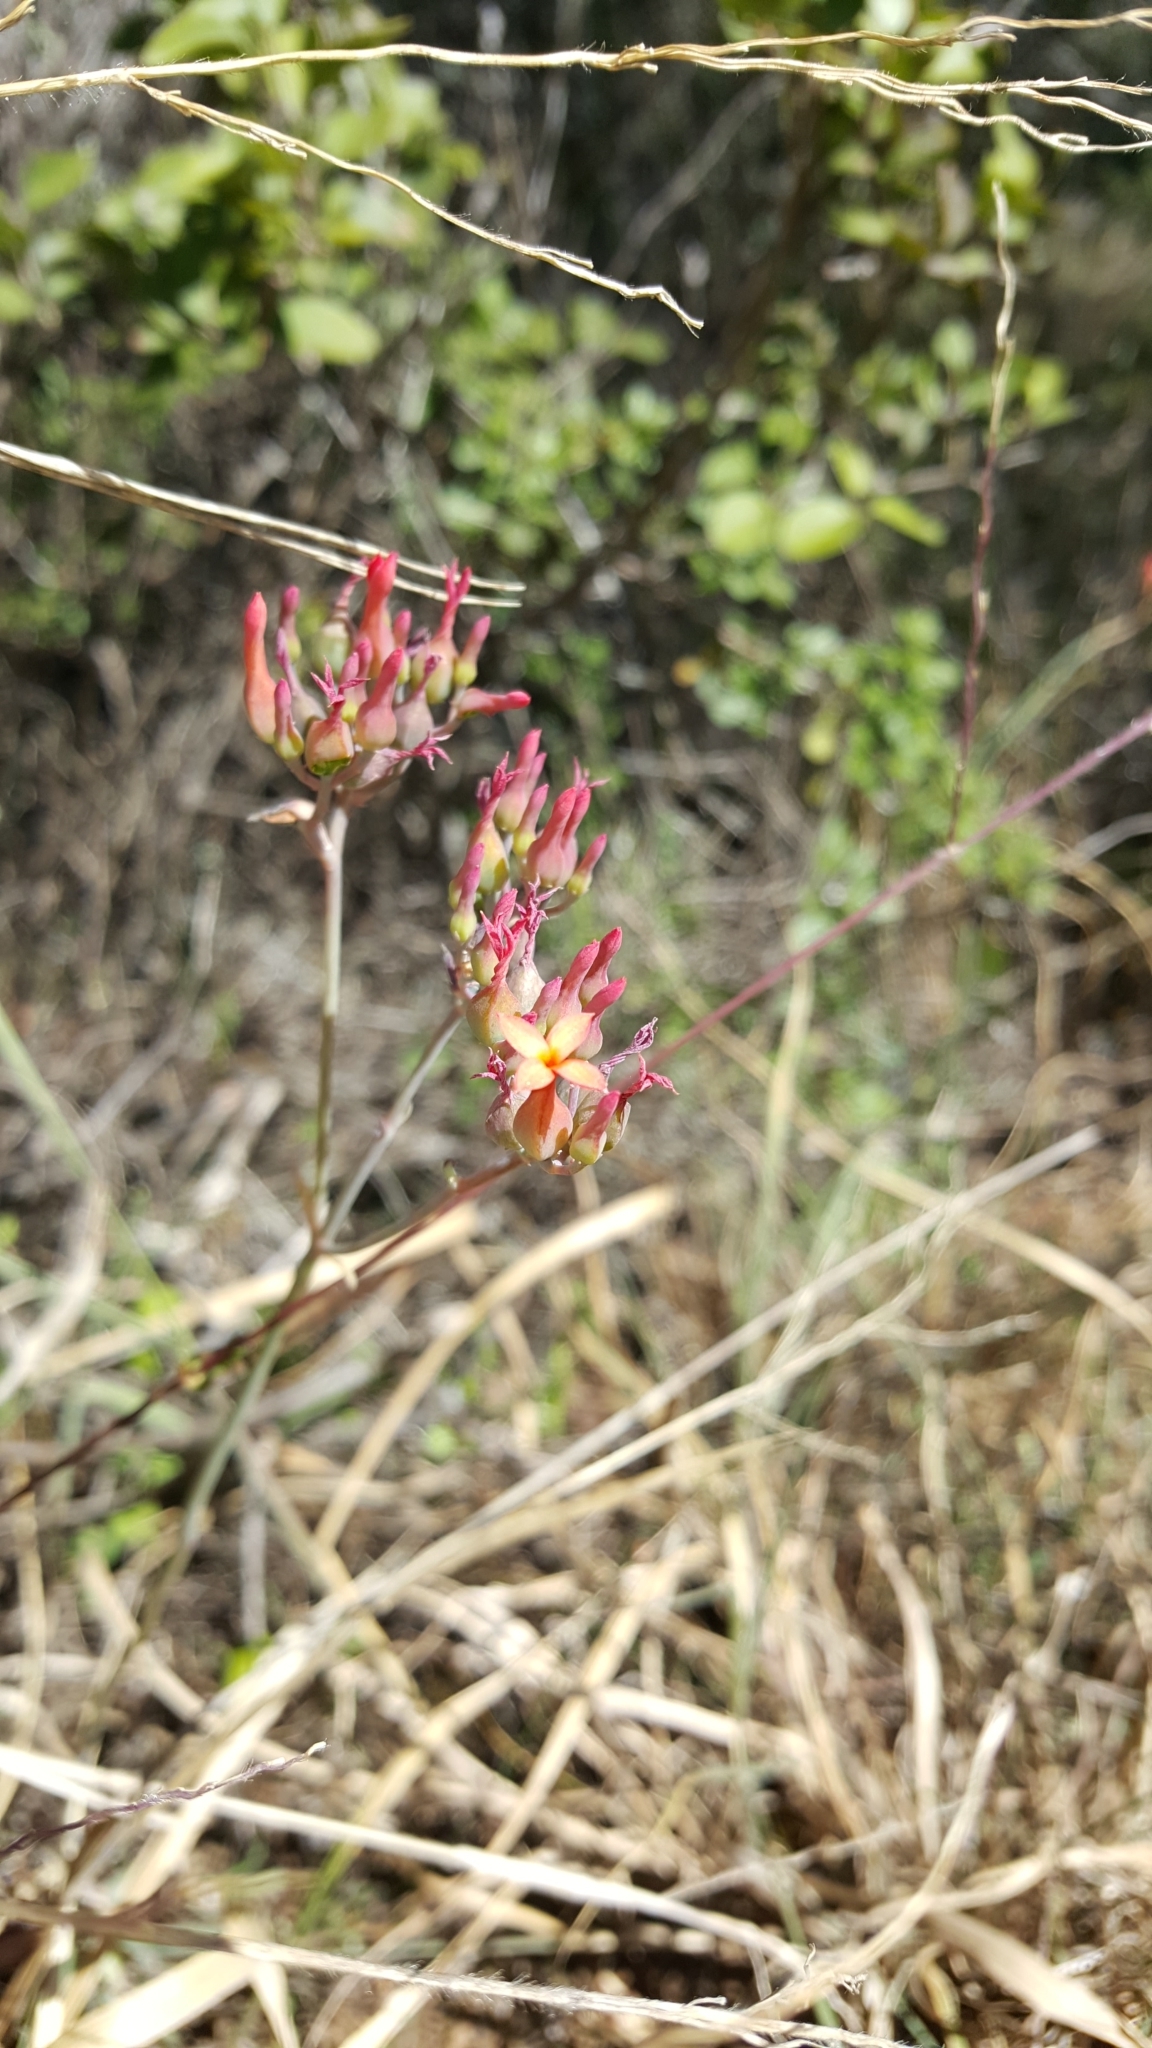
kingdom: Plantae
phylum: Tracheophyta
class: Magnoliopsida
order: Saxifragales
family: Crassulaceae
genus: Kalanchoe
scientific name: Kalanchoe rotundifolia
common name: Common kalanchoe
